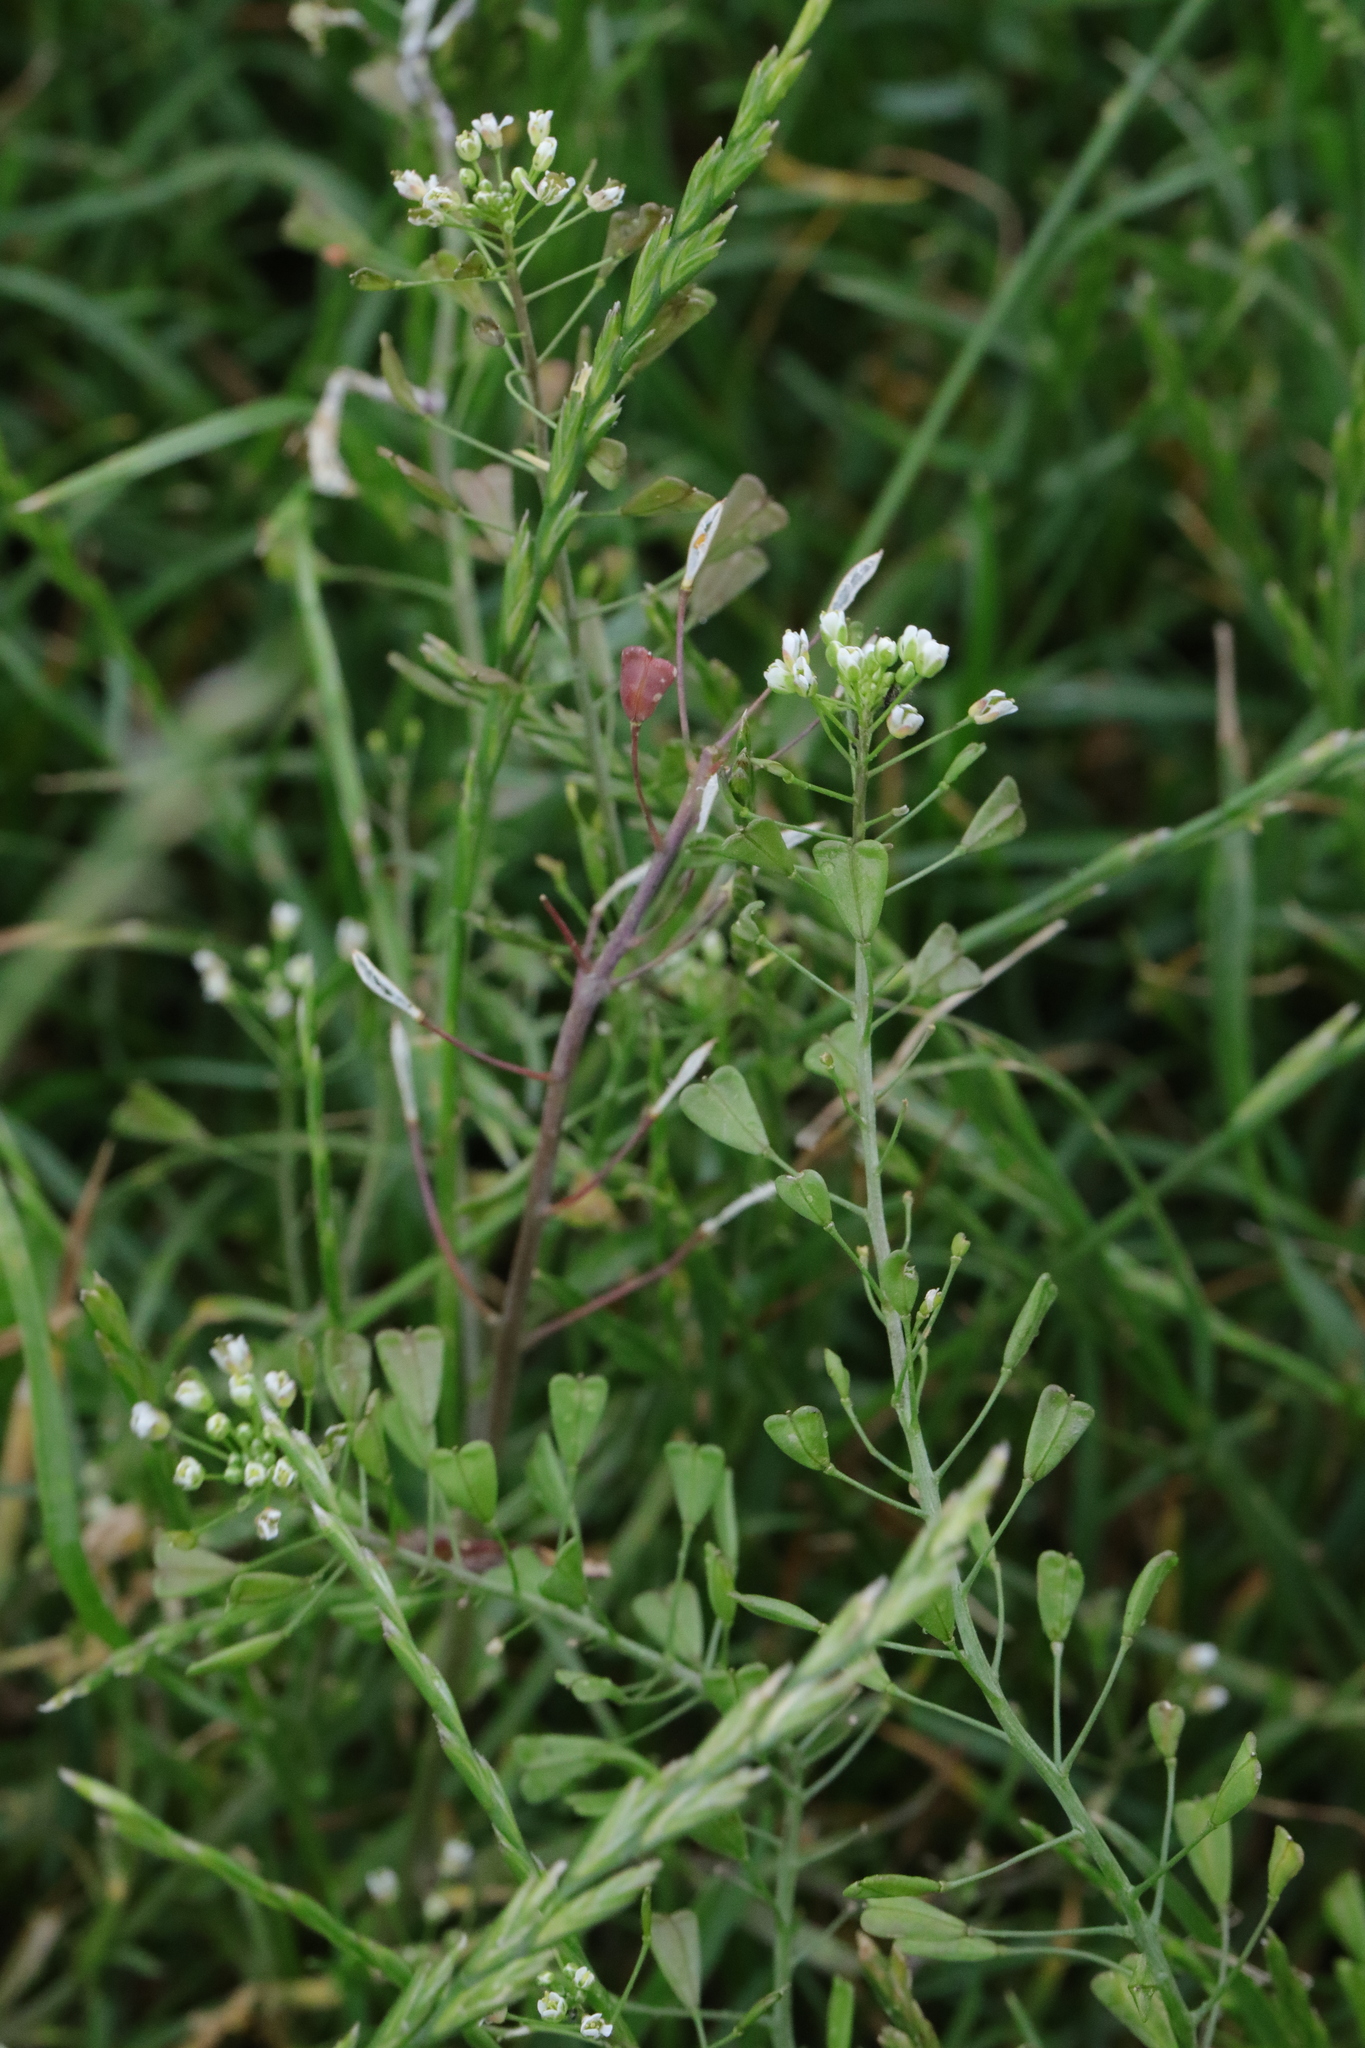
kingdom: Plantae
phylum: Tracheophyta
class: Magnoliopsida
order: Brassicales
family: Brassicaceae
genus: Capsella
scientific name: Capsella bursa-pastoris
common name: Shepherd's purse
